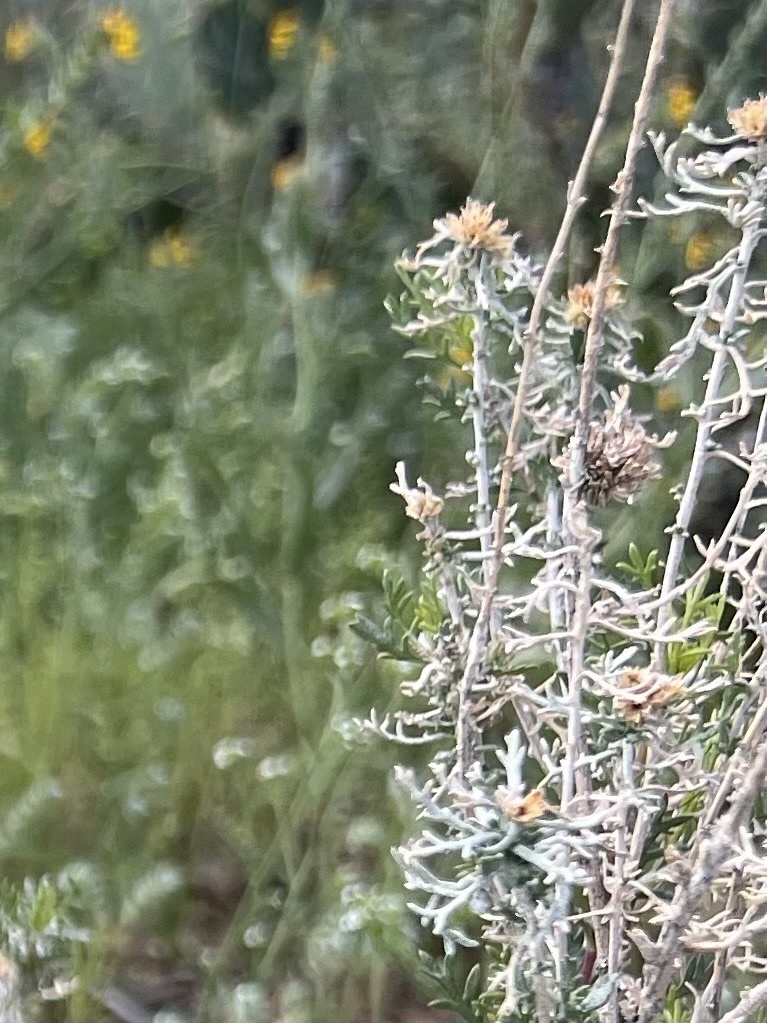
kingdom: Plantae
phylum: Tracheophyta
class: Magnoliopsida
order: Asterales
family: Asteraceae
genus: Isocoma
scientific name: Isocoma tenuisecta
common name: Burroweed
